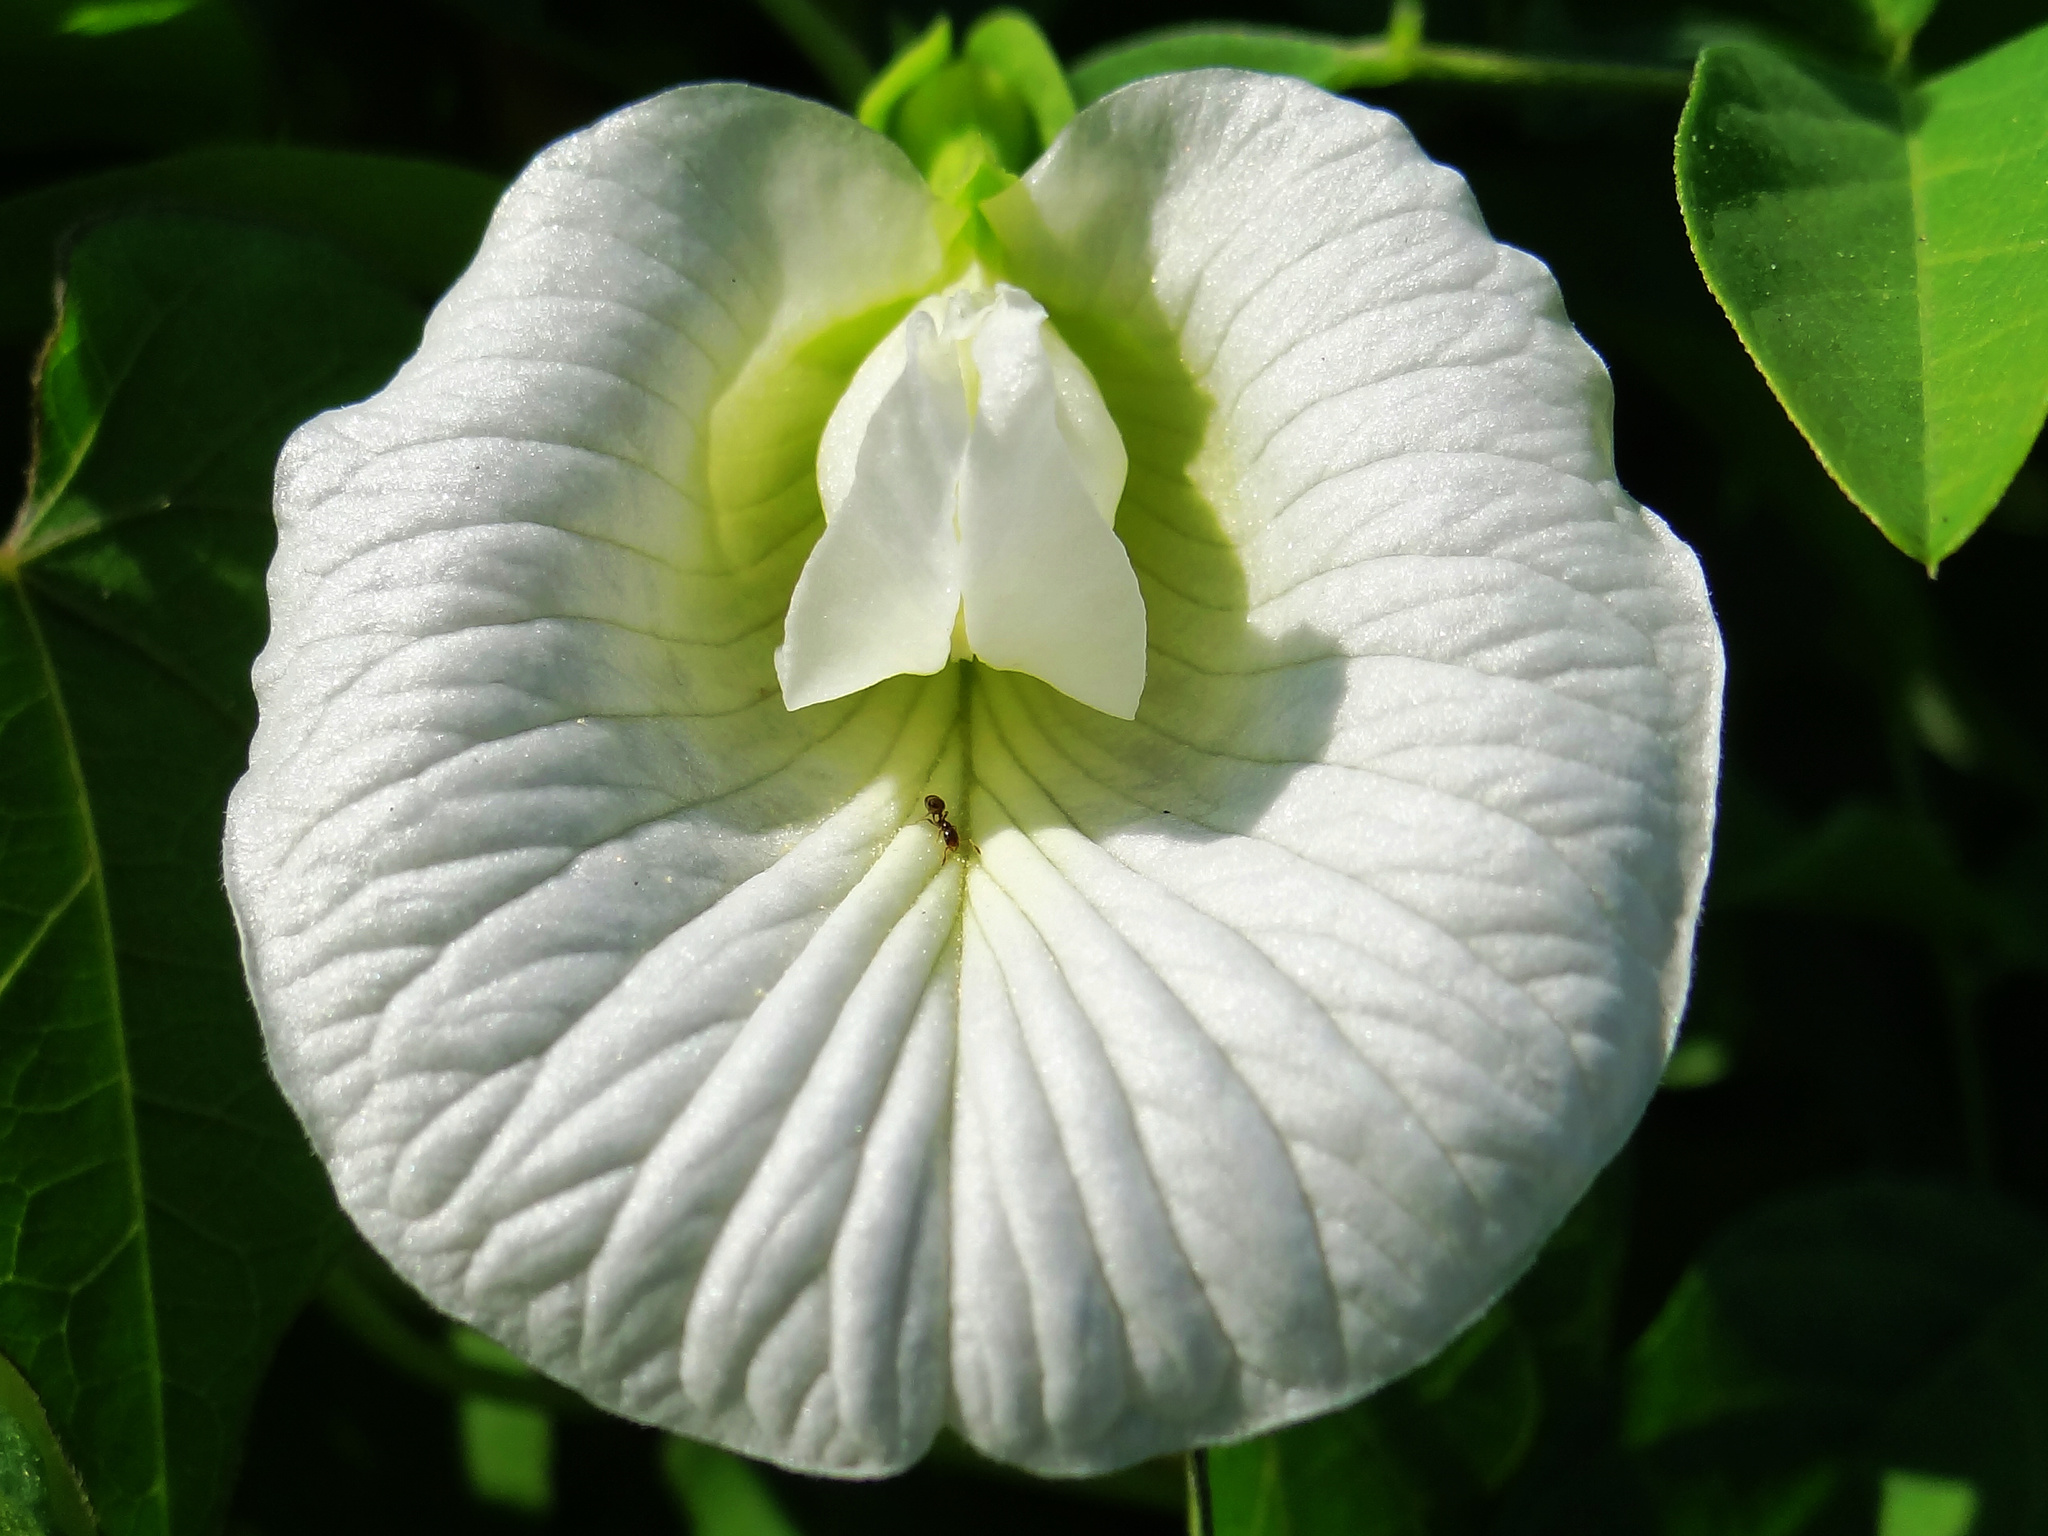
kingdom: Plantae
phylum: Tracheophyta
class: Magnoliopsida
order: Fabales
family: Fabaceae
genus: Clitoria
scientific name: Clitoria ternatea
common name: Asian pigeonwings
